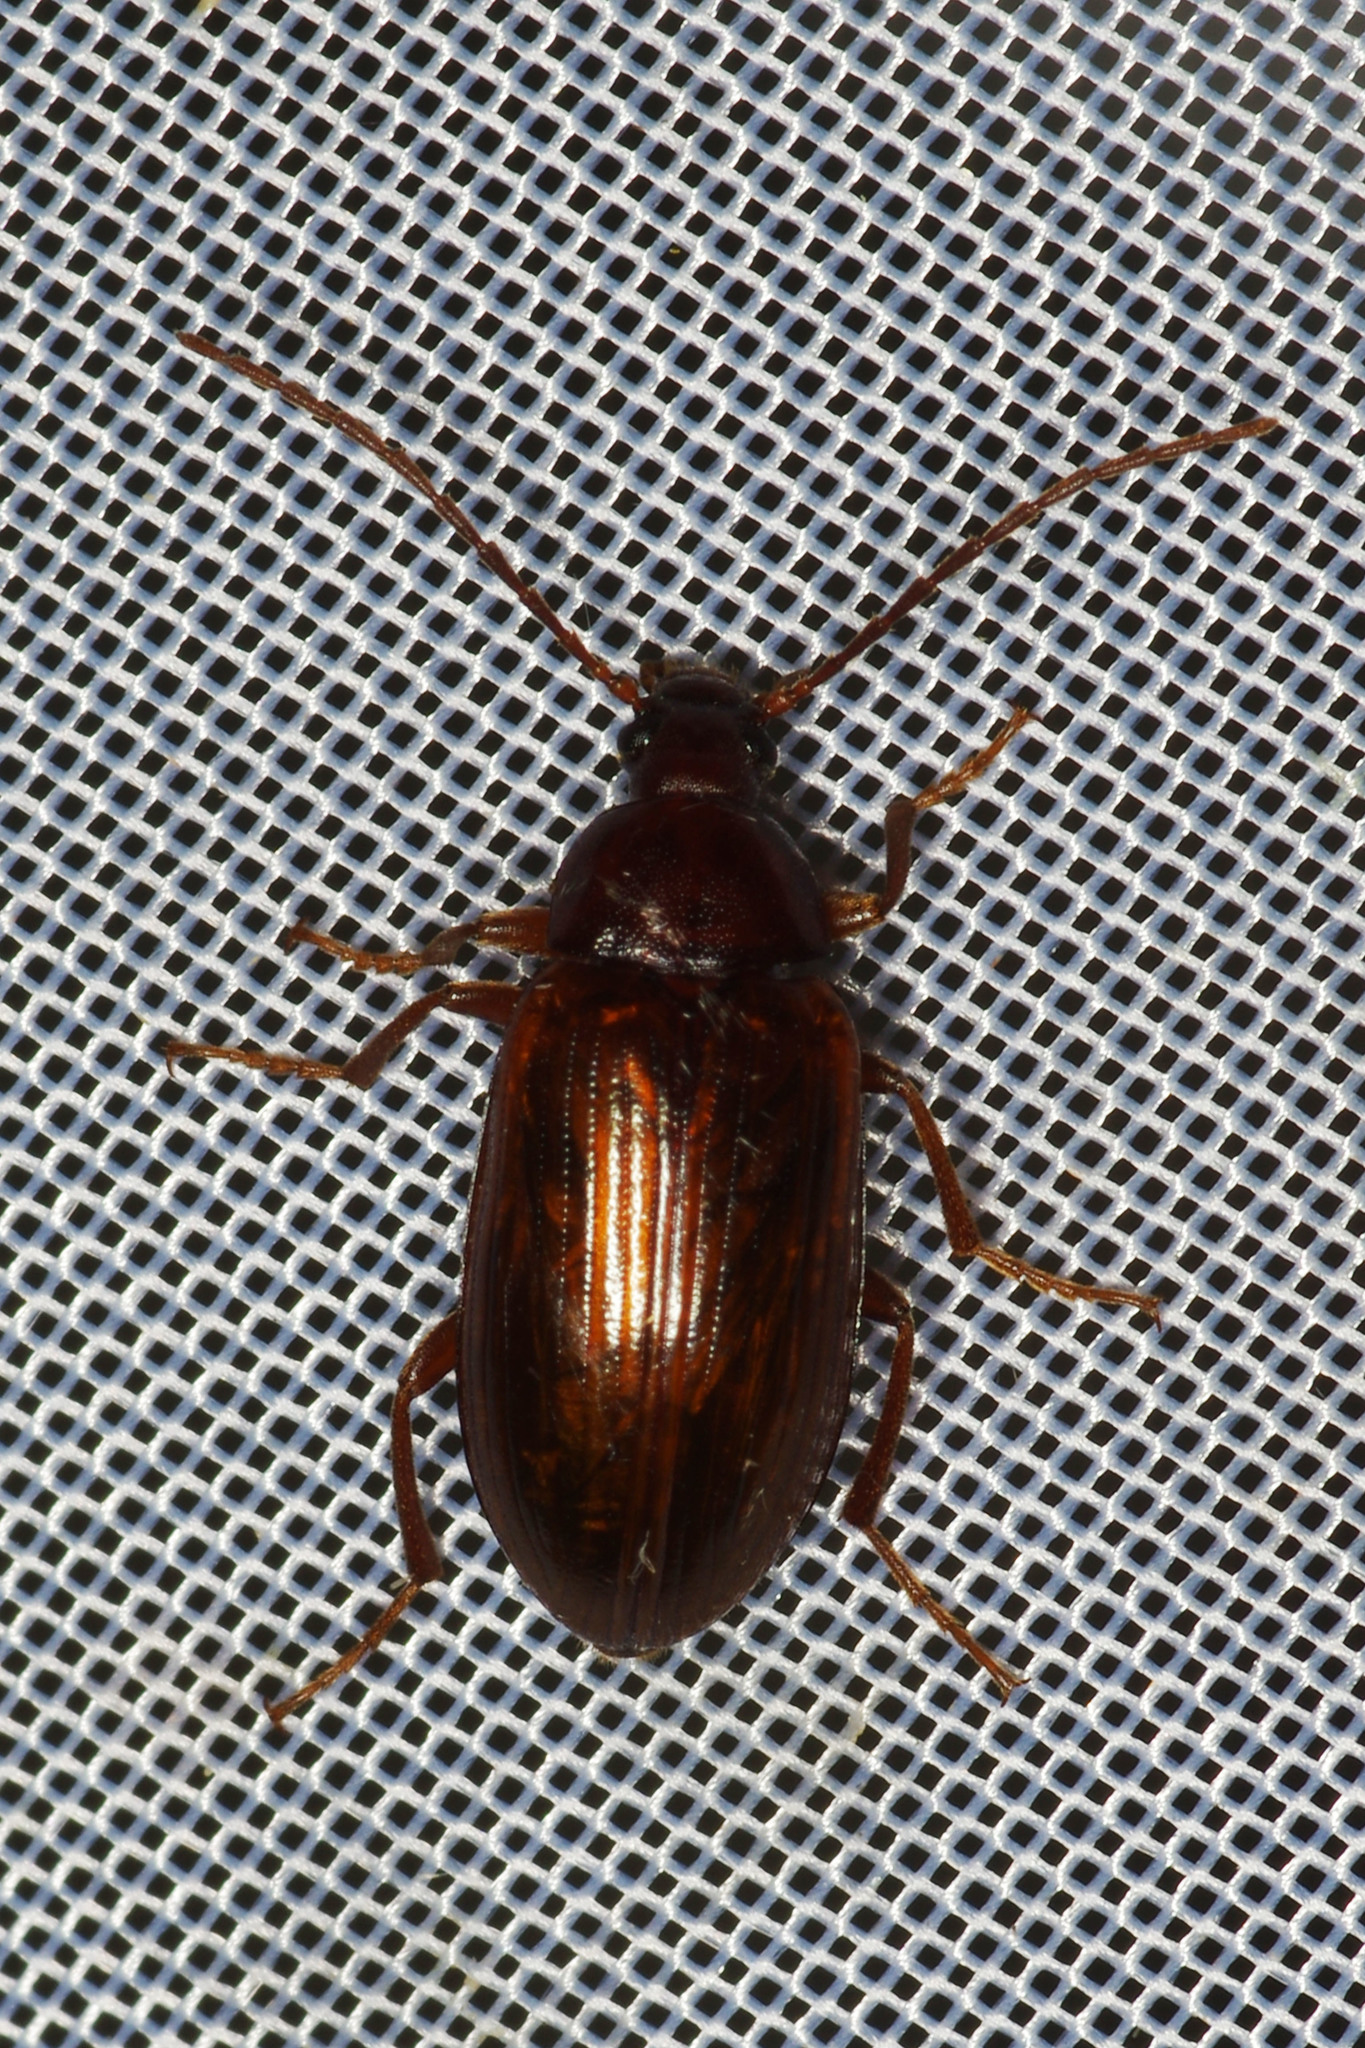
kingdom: Animalia
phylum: Arthropoda
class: Insecta
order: Coleoptera
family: Tenebrionidae
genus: Gonodera
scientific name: Gonodera luperus
